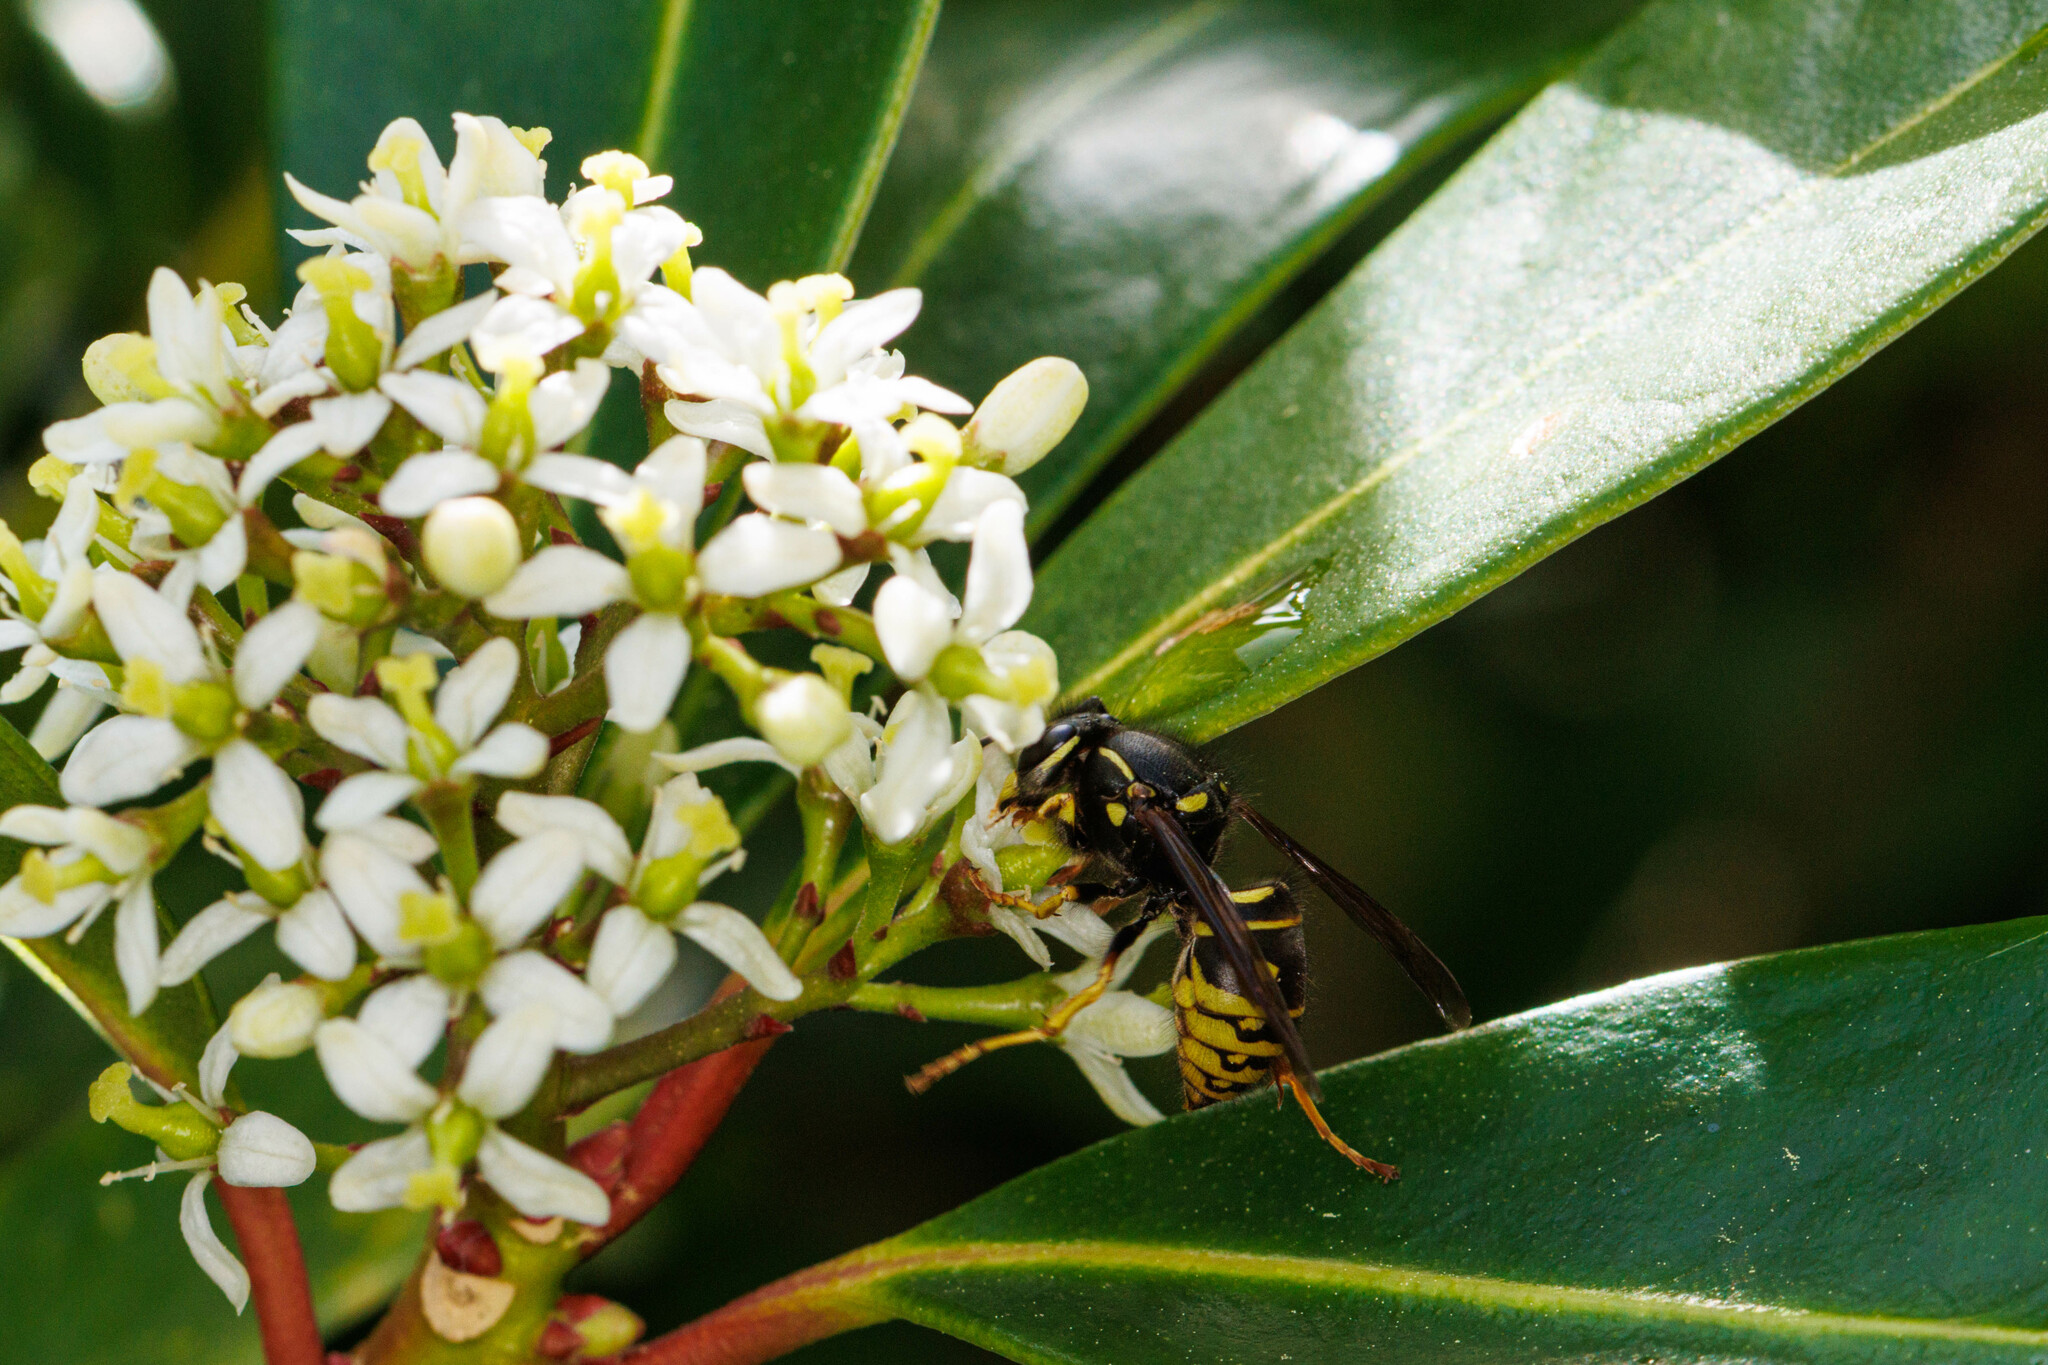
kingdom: Animalia
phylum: Arthropoda
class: Insecta
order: Hymenoptera
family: Vespidae
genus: Vespula
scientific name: Vespula acadica
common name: Forest yellowjacket
